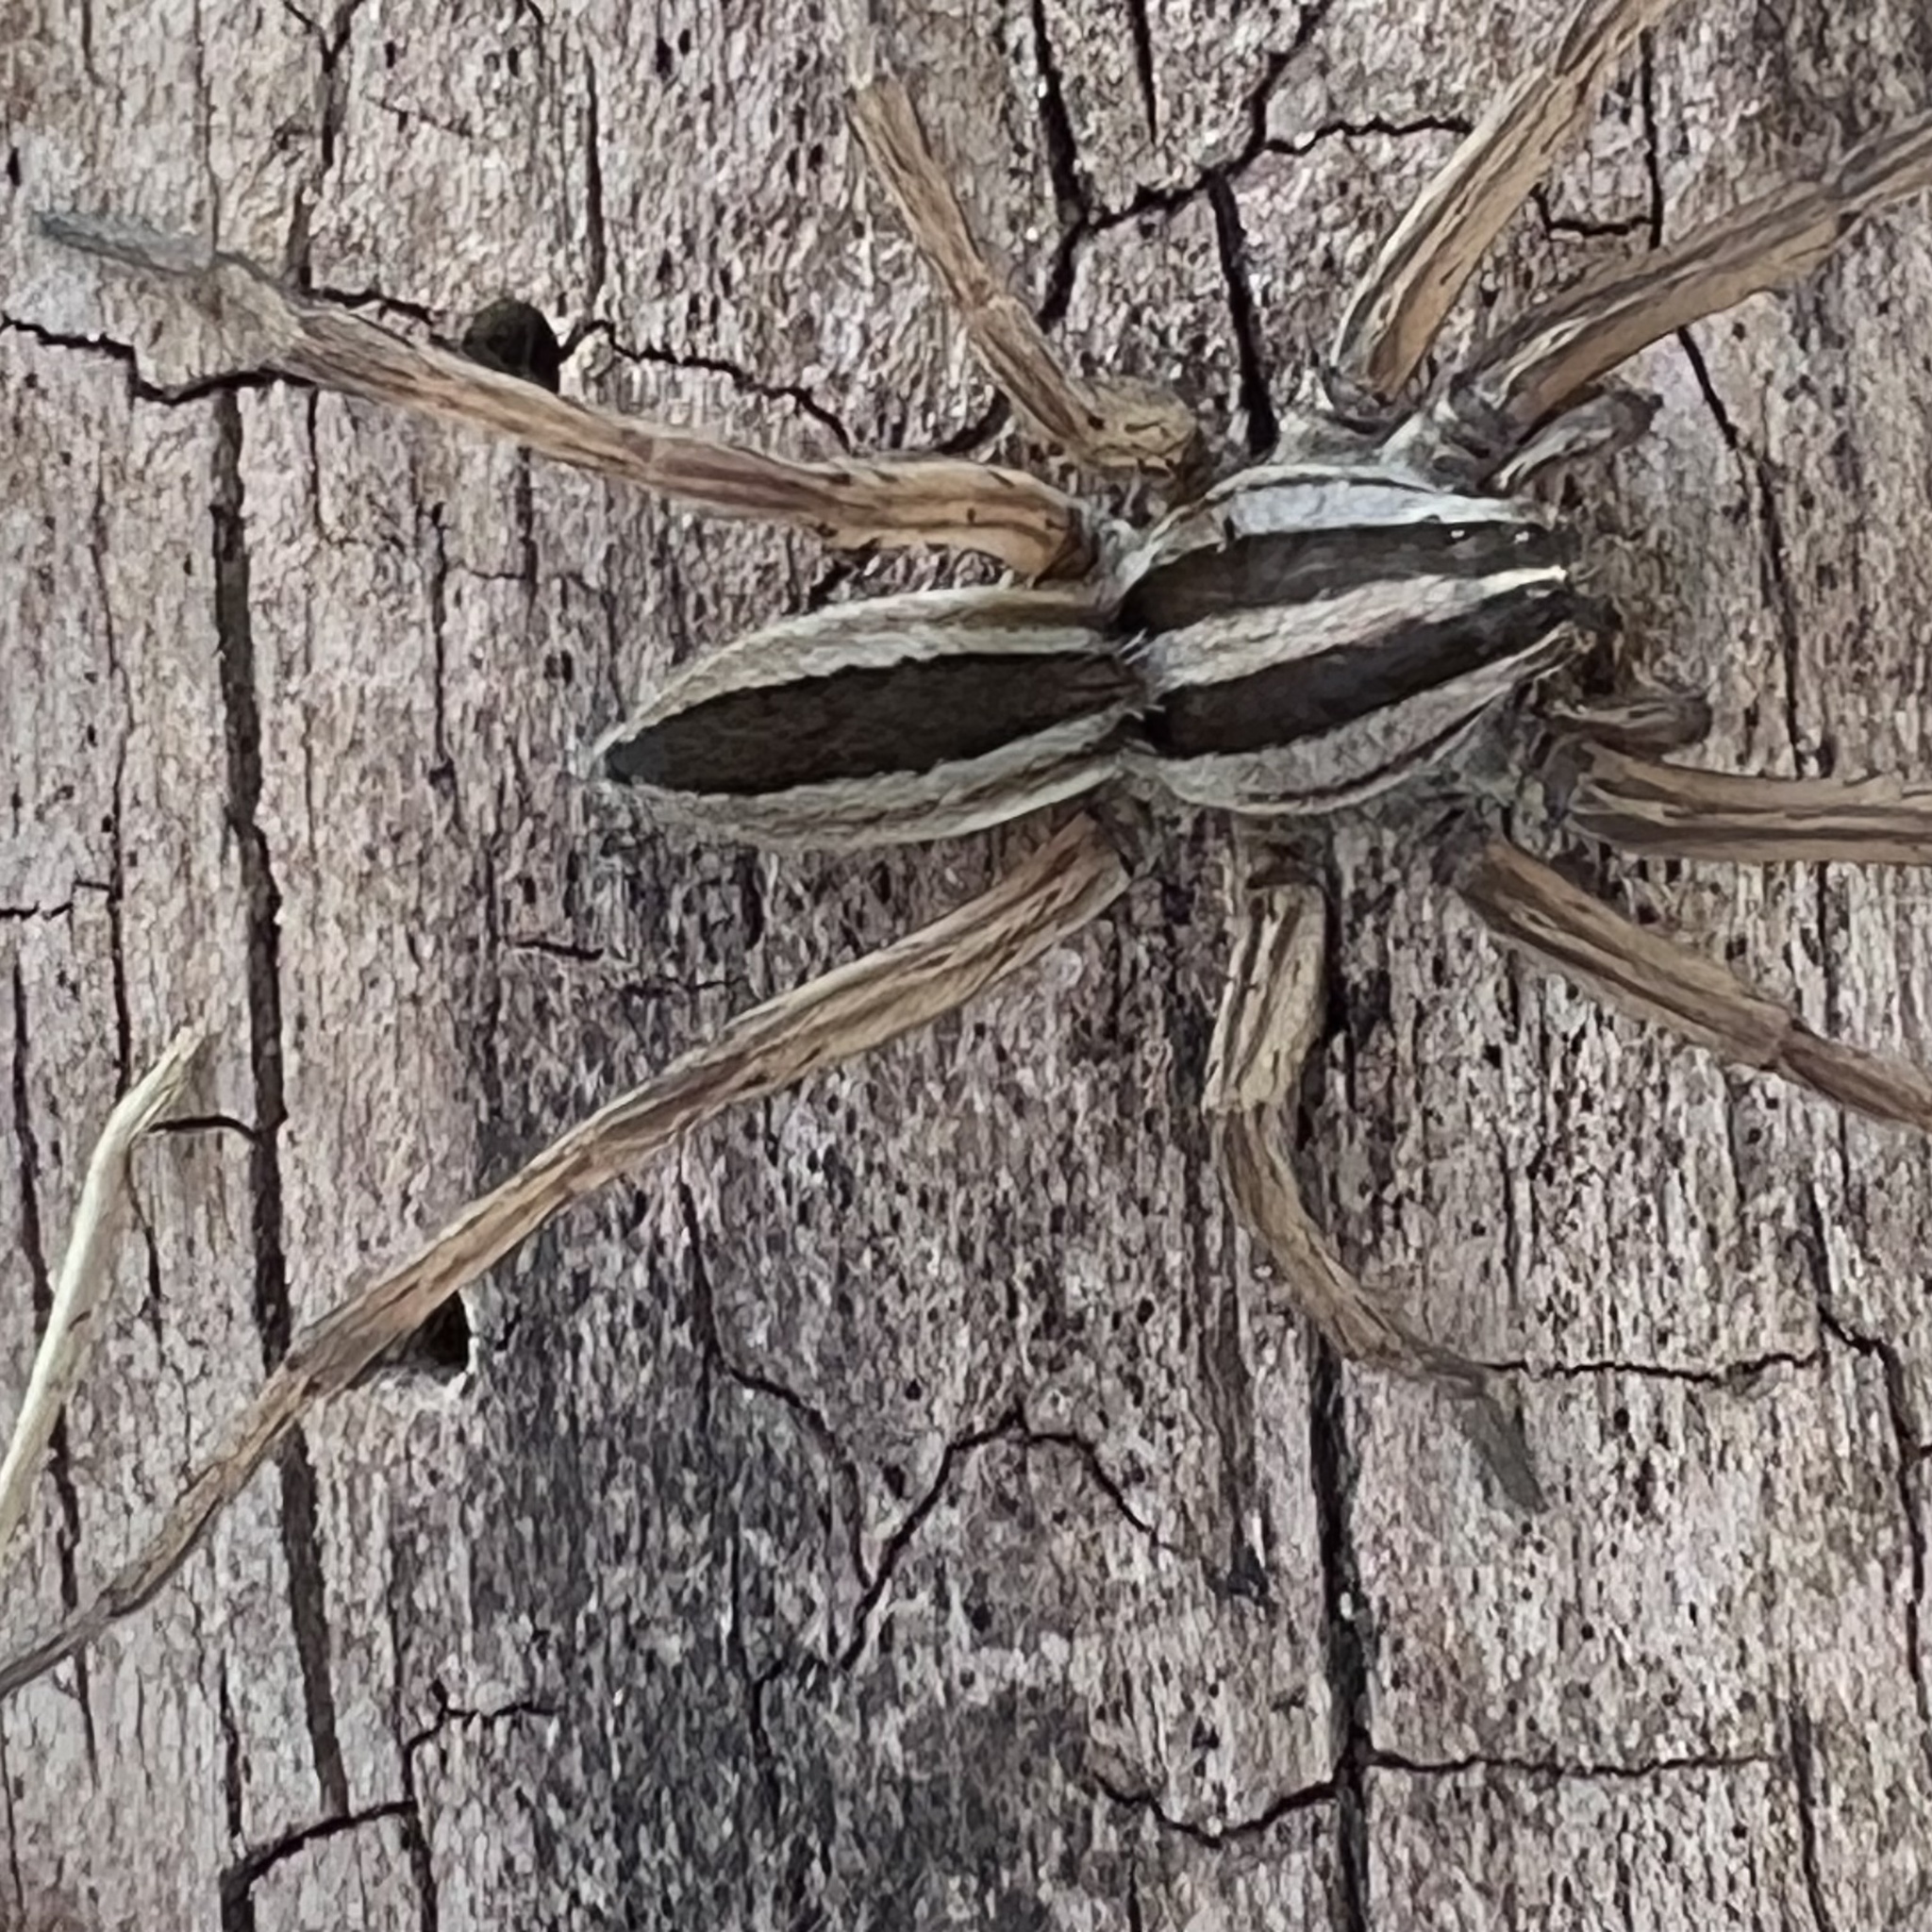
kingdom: Animalia
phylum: Arthropoda
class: Arachnida
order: Araneae
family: Lycosidae
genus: Rabidosa
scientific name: Rabidosa punctulata
